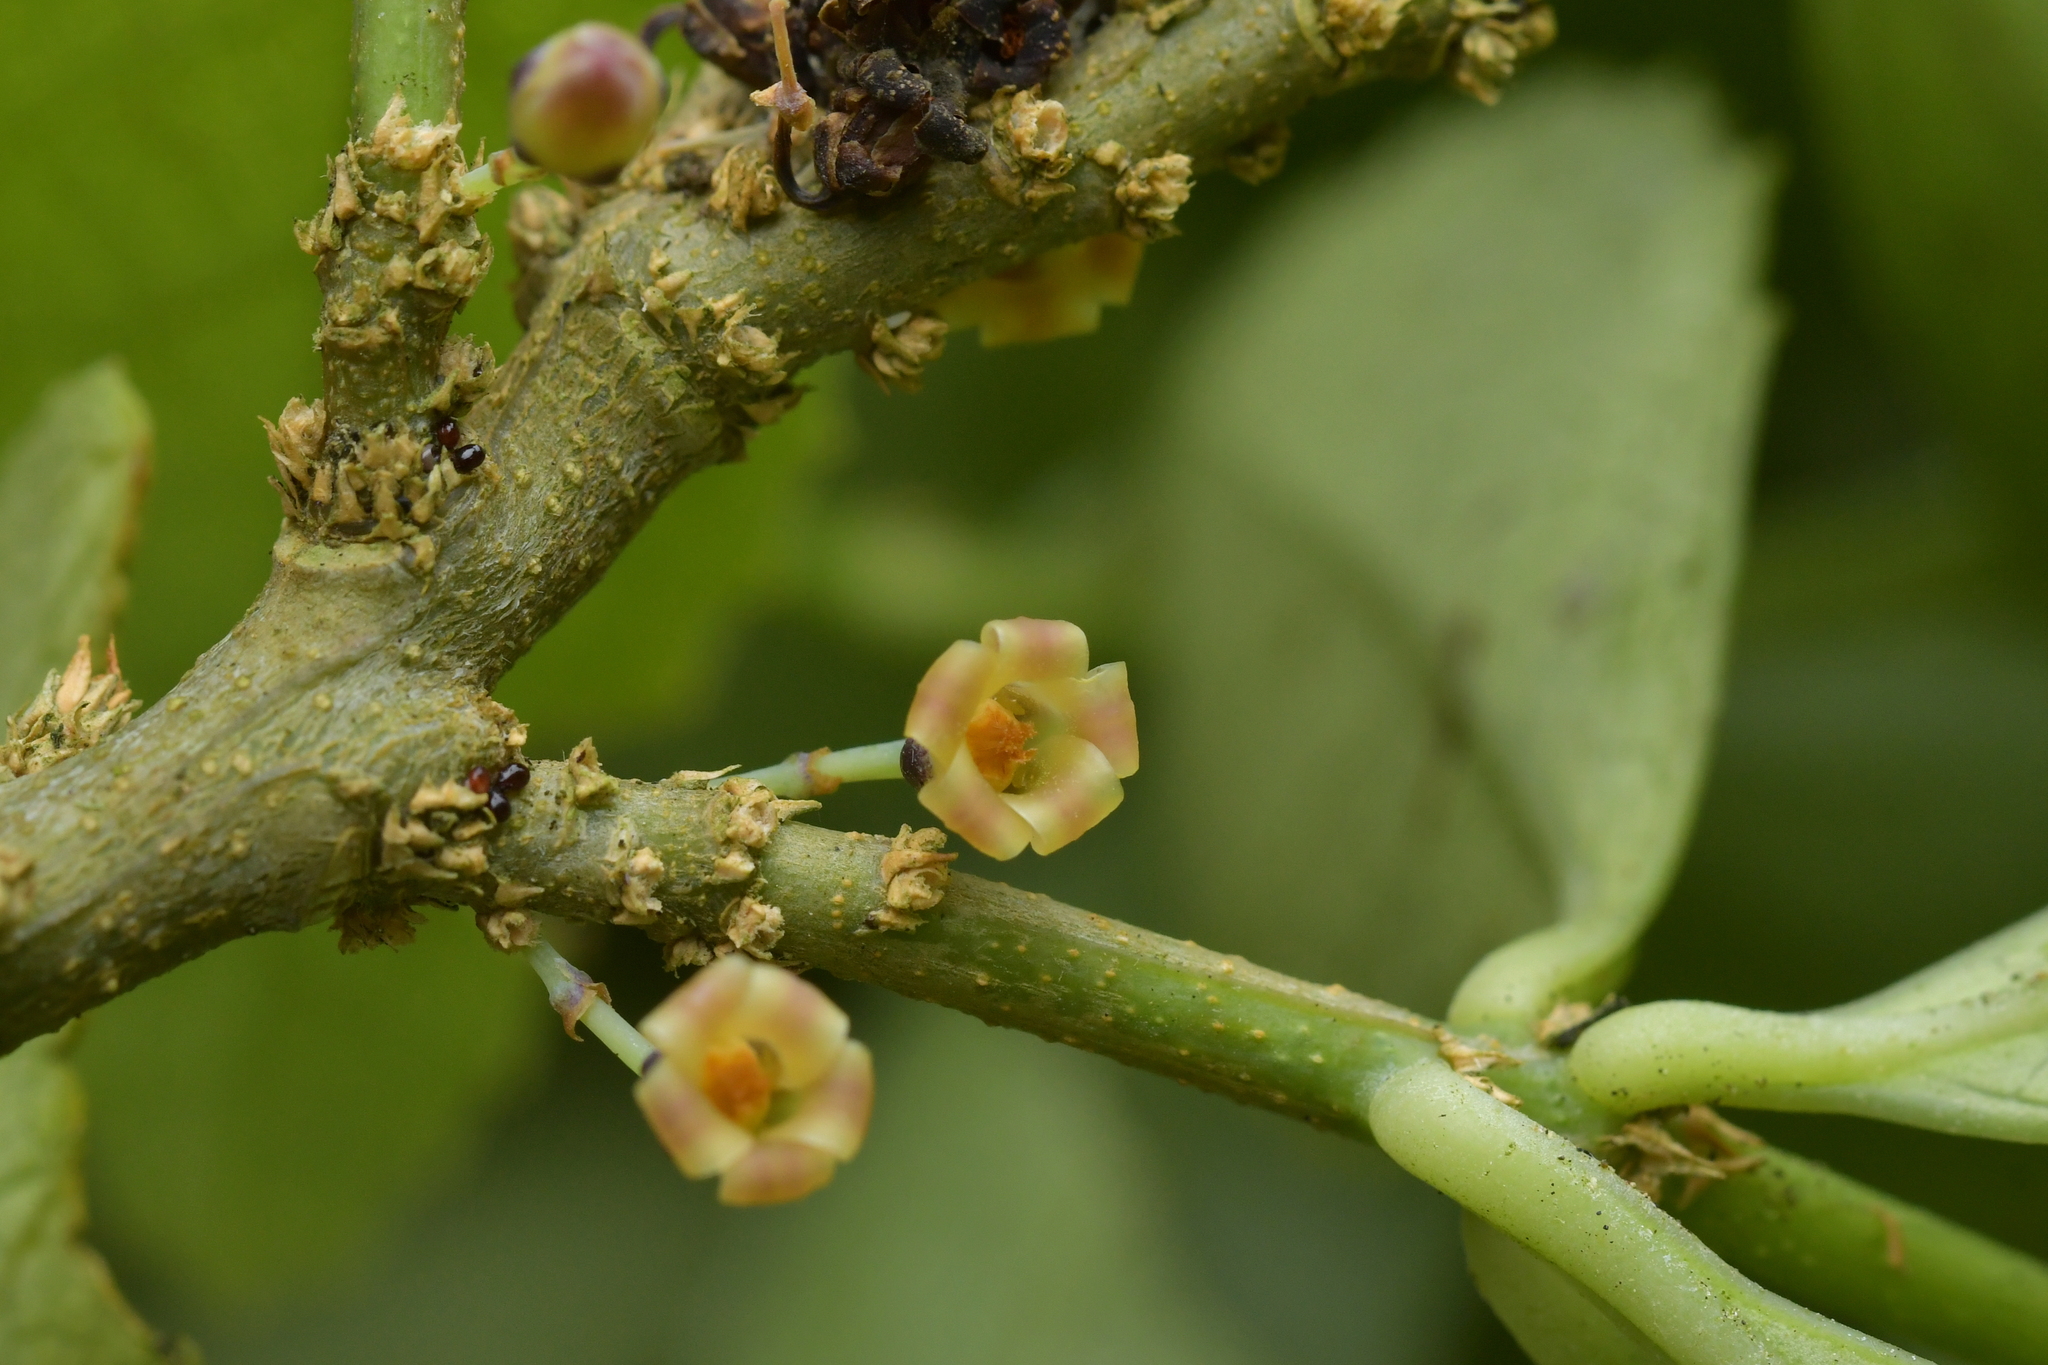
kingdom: Plantae
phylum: Tracheophyta
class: Magnoliopsida
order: Malpighiales
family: Violaceae
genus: Melicytus
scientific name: Melicytus chathamicus
